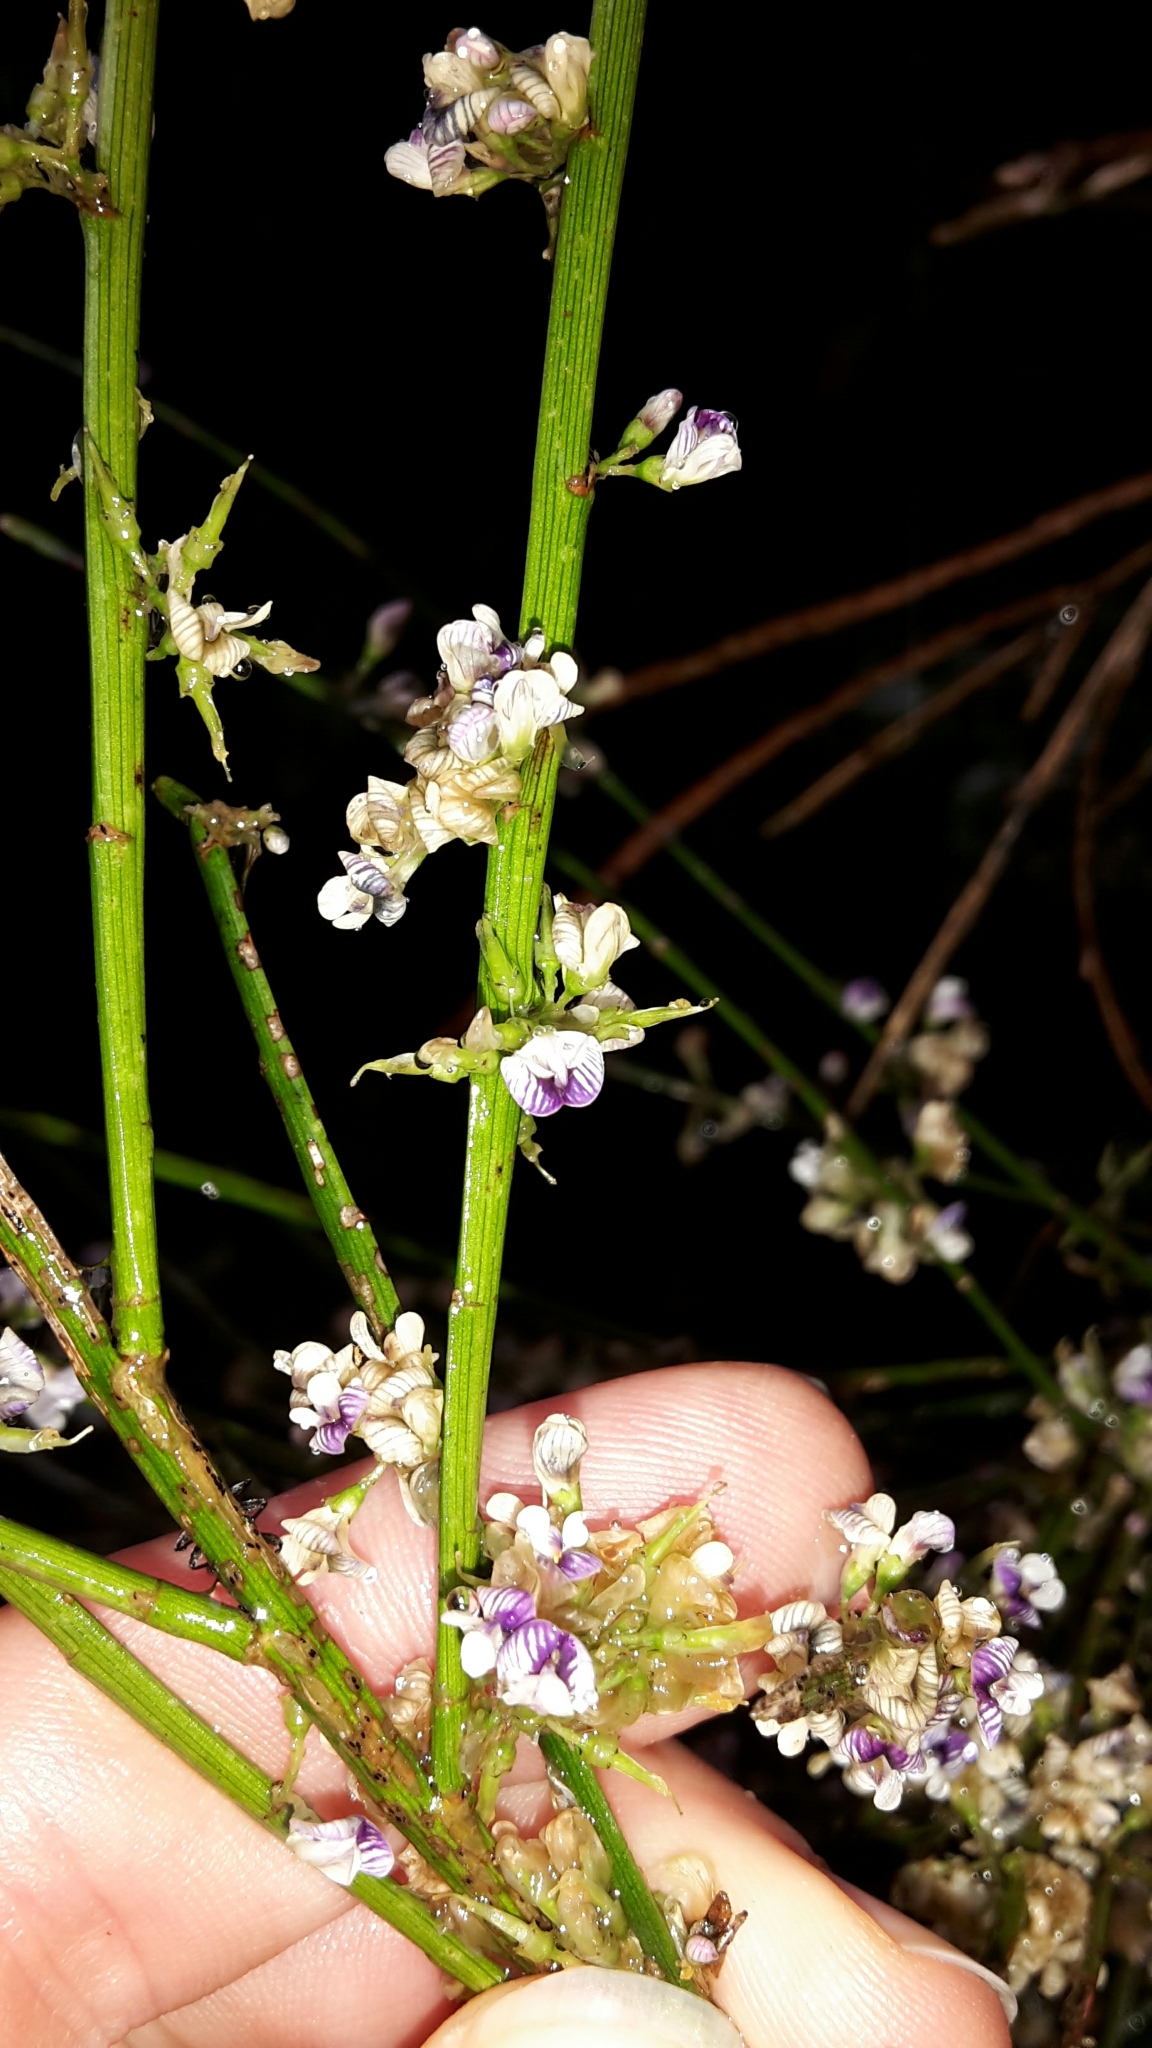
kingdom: Plantae
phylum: Tracheophyta
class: Magnoliopsida
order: Fabales
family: Fabaceae
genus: Carmichaelia
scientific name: Carmichaelia australis
